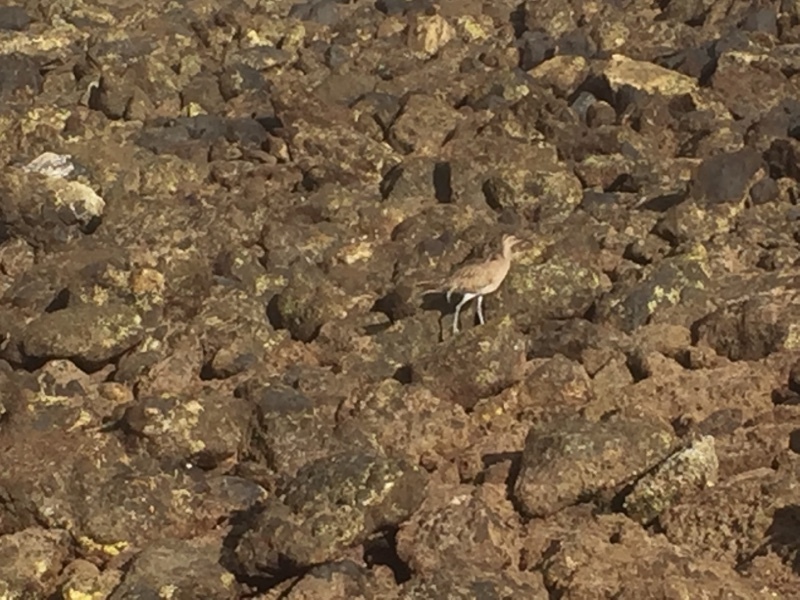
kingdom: Animalia
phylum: Chordata
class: Aves
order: Charadriiformes
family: Scolopacidae
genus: Numenius
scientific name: Numenius phaeopus
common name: Whimbrel
